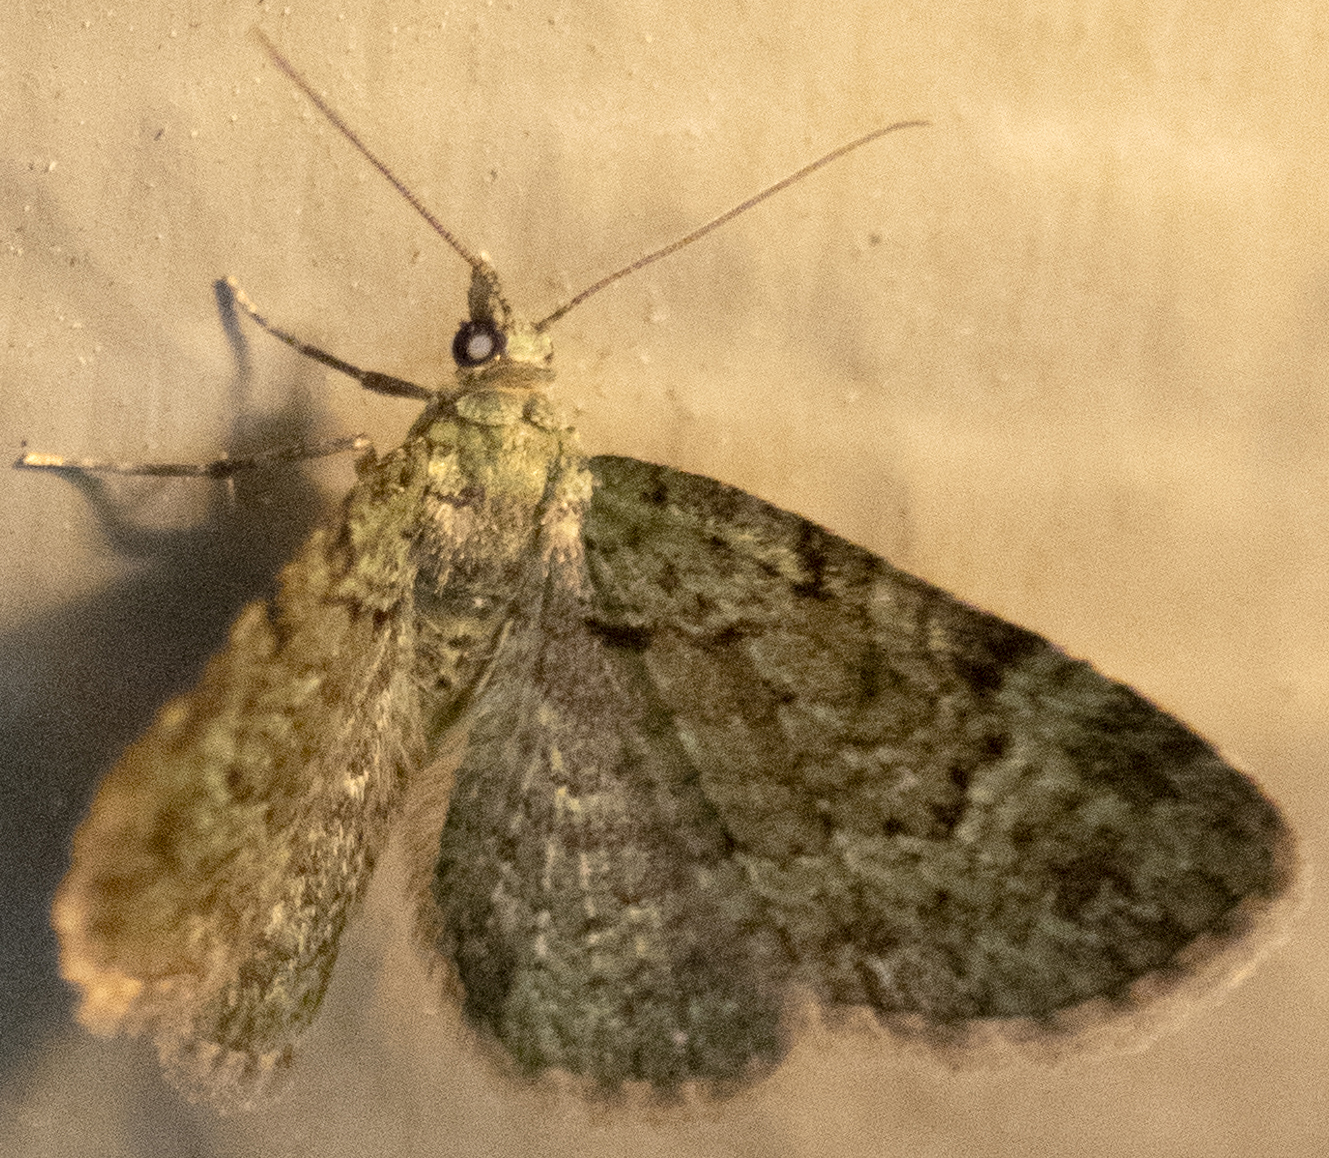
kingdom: Animalia
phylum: Arthropoda
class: Insecta
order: Lepidoptera
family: Geometridae
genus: Pasiphila
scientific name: Pasiphila rectangulata
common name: Green pug
